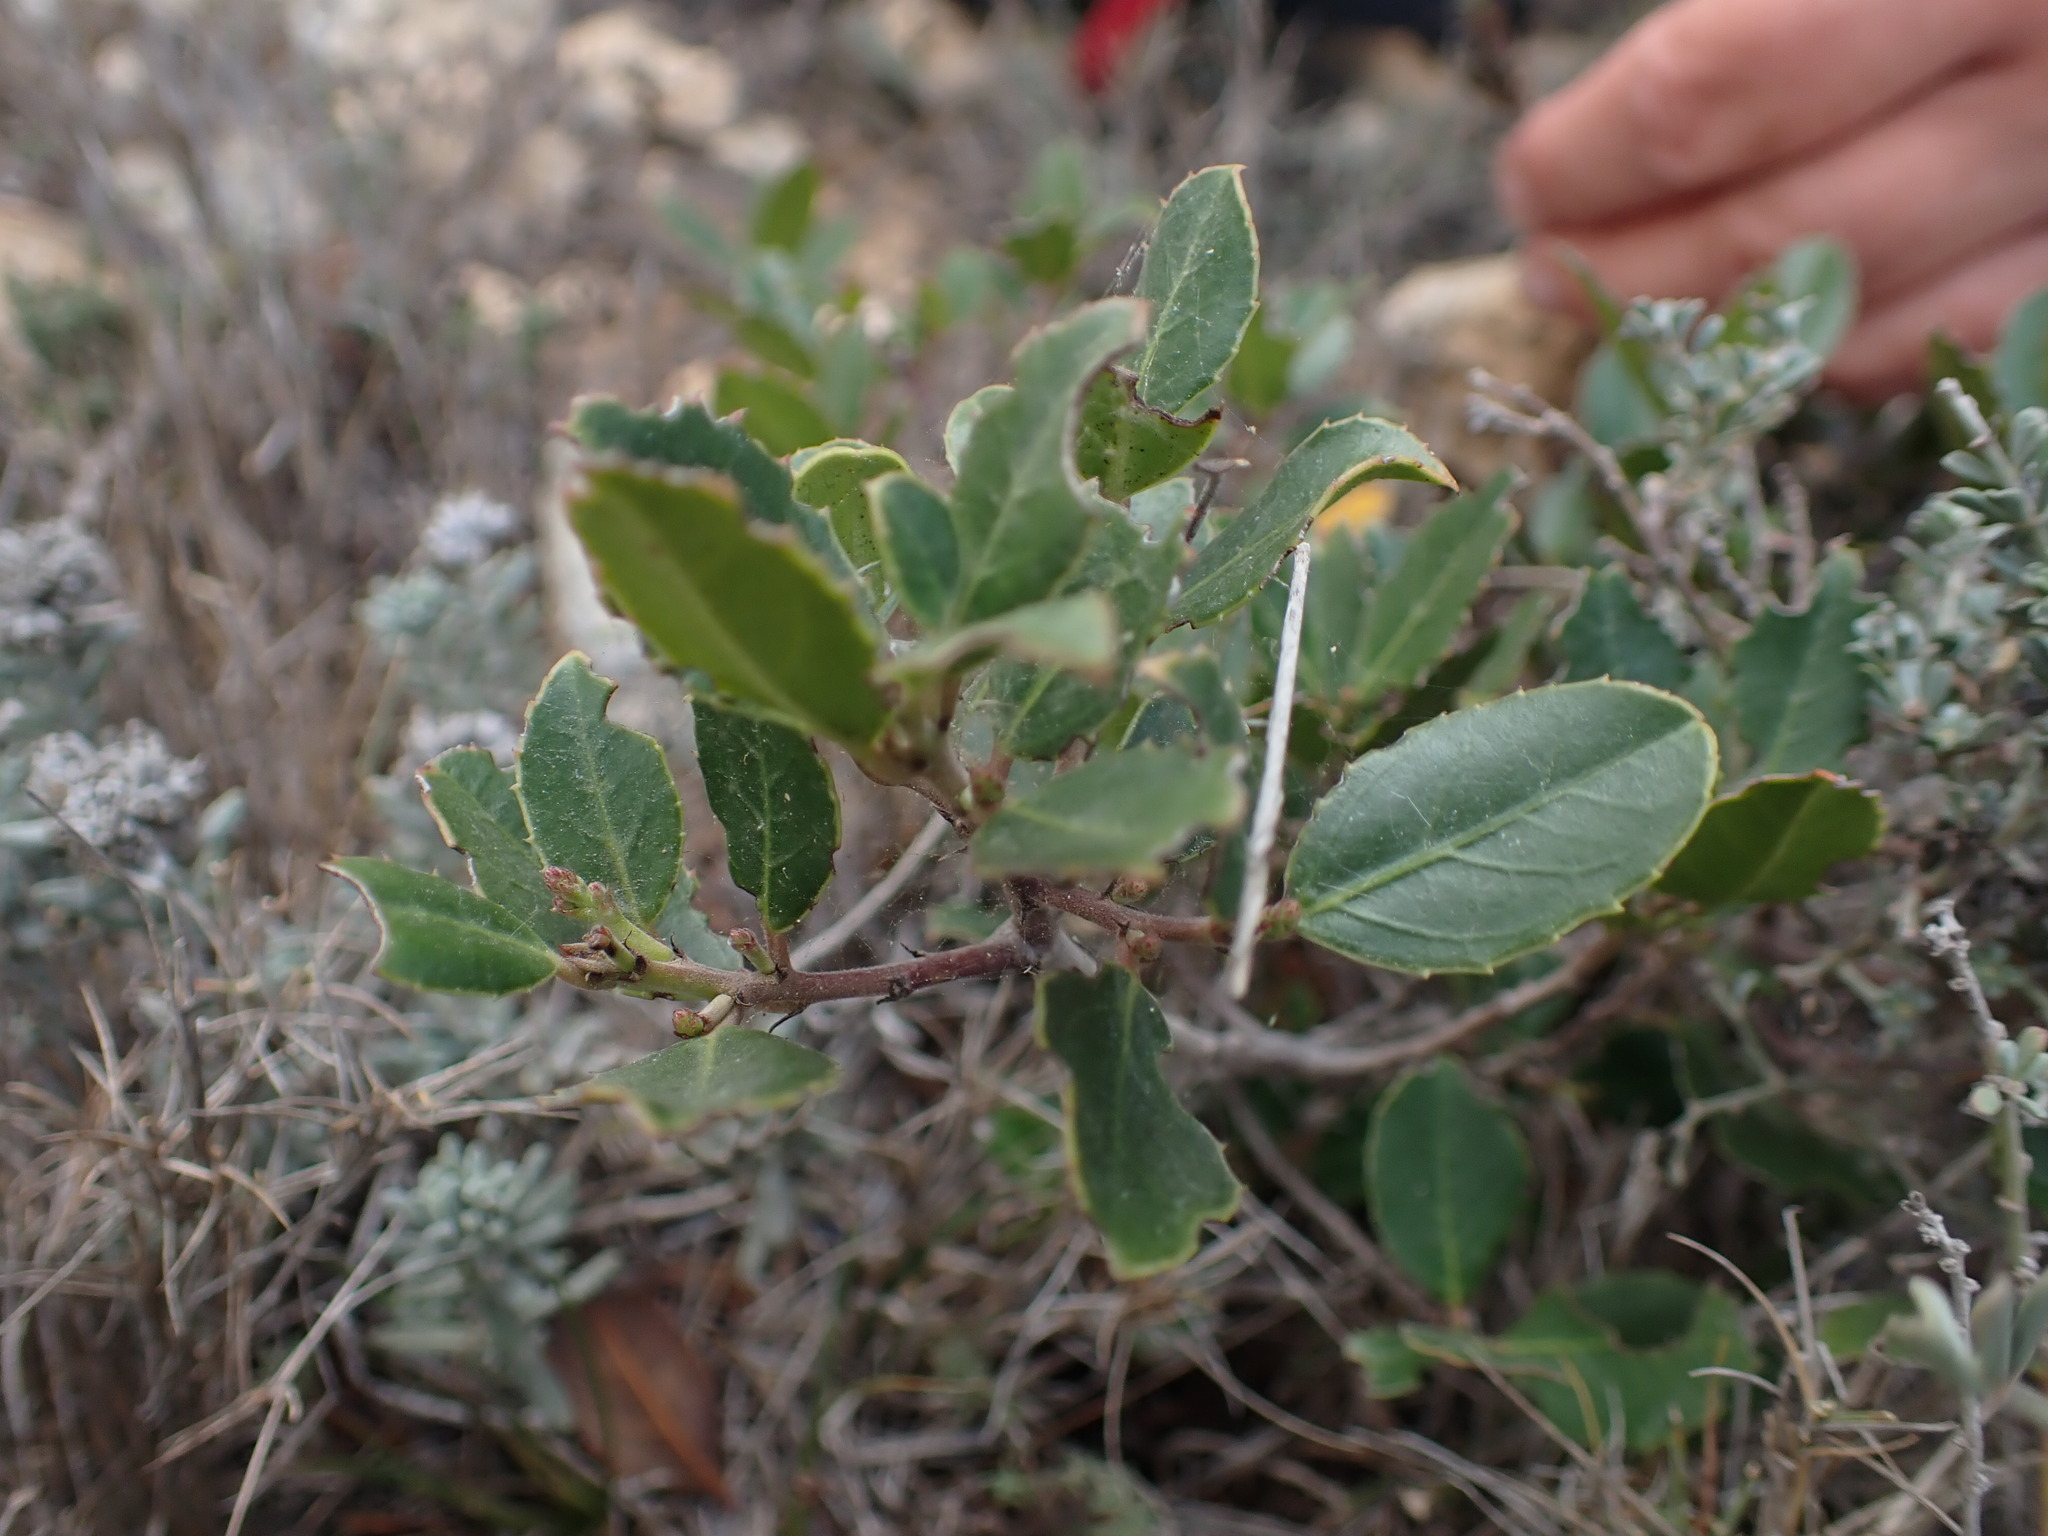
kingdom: Plantae
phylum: Tracheophyta
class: Magnoliopsida
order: Rosales
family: Rhamnaceae
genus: Rhamnus
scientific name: Rhamnus alaternus
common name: Mediterranean buckthorn
